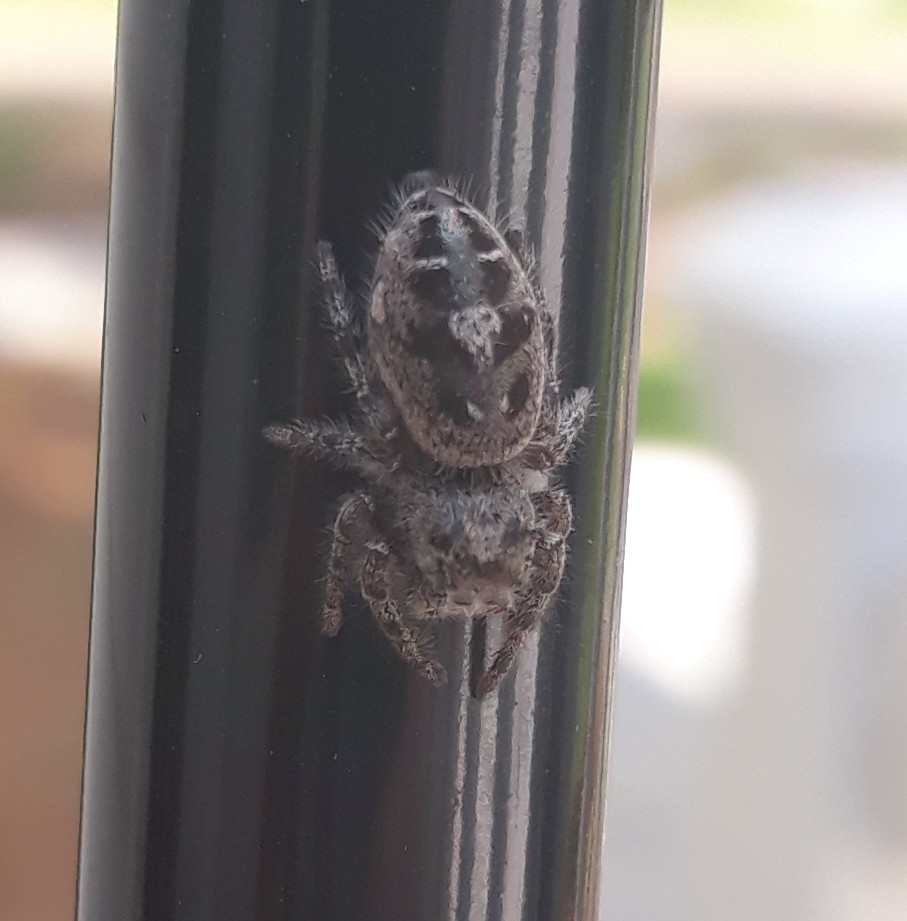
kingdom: Animalia
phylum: Arthropoda
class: Arachnida
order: Araneae
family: Salticidae
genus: Phidippus
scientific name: Phidippus putnami
